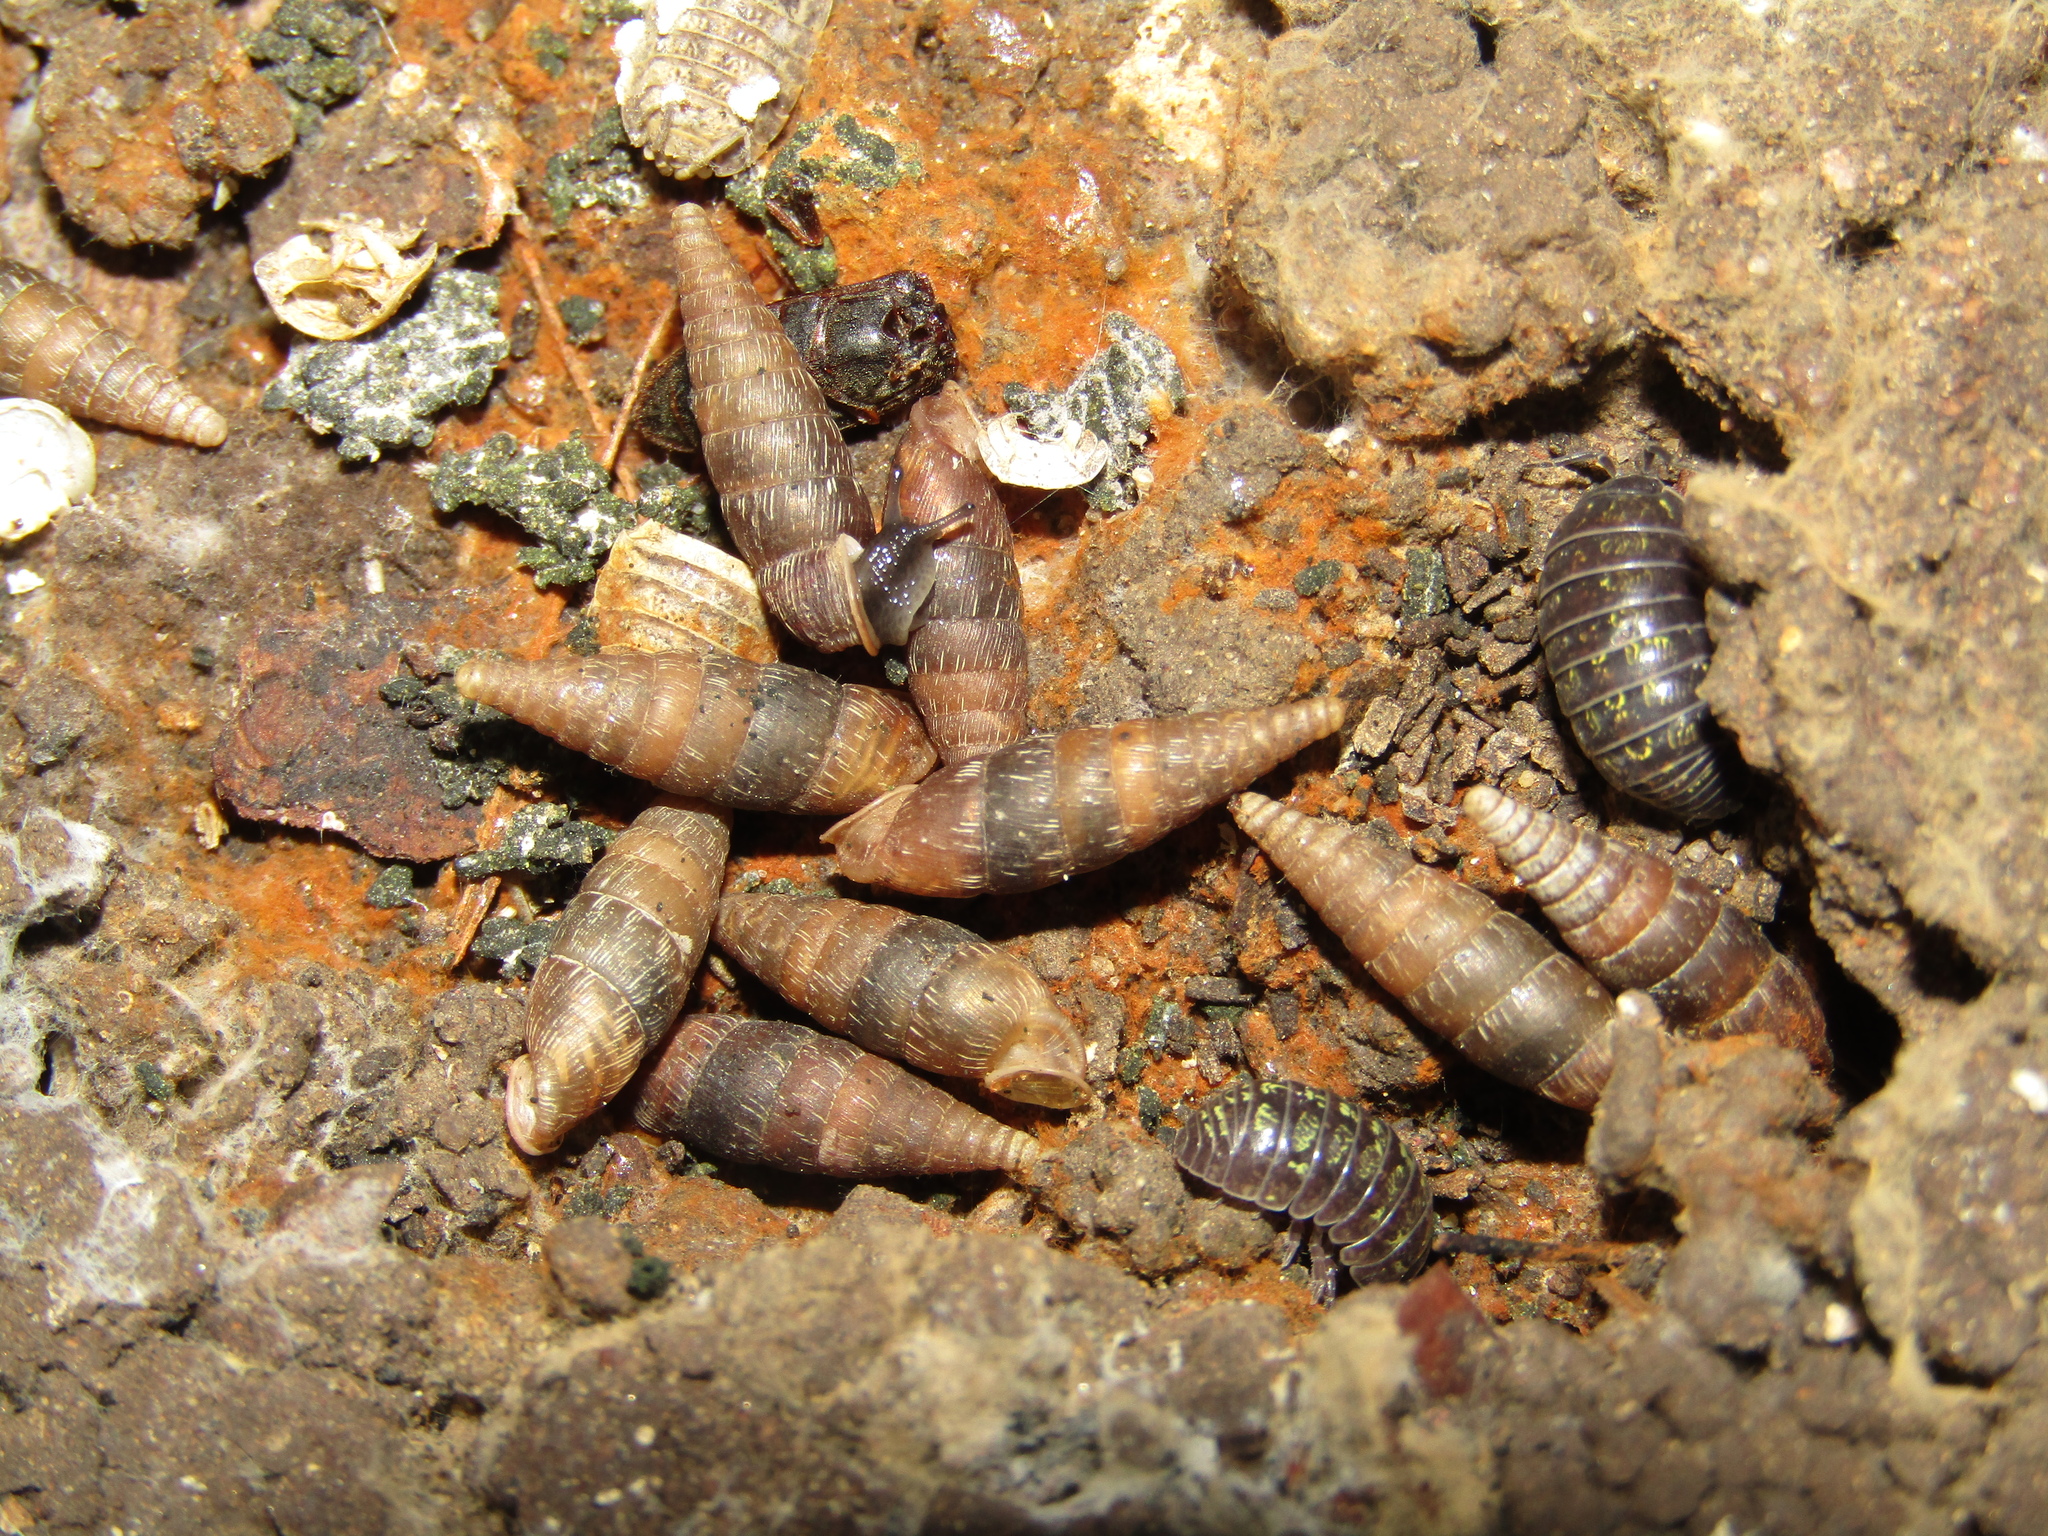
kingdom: Animalia
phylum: Mollusca
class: Gastropoda
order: Stylommatophora
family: Clausiliidae
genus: Elia
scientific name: Elia novorossica
